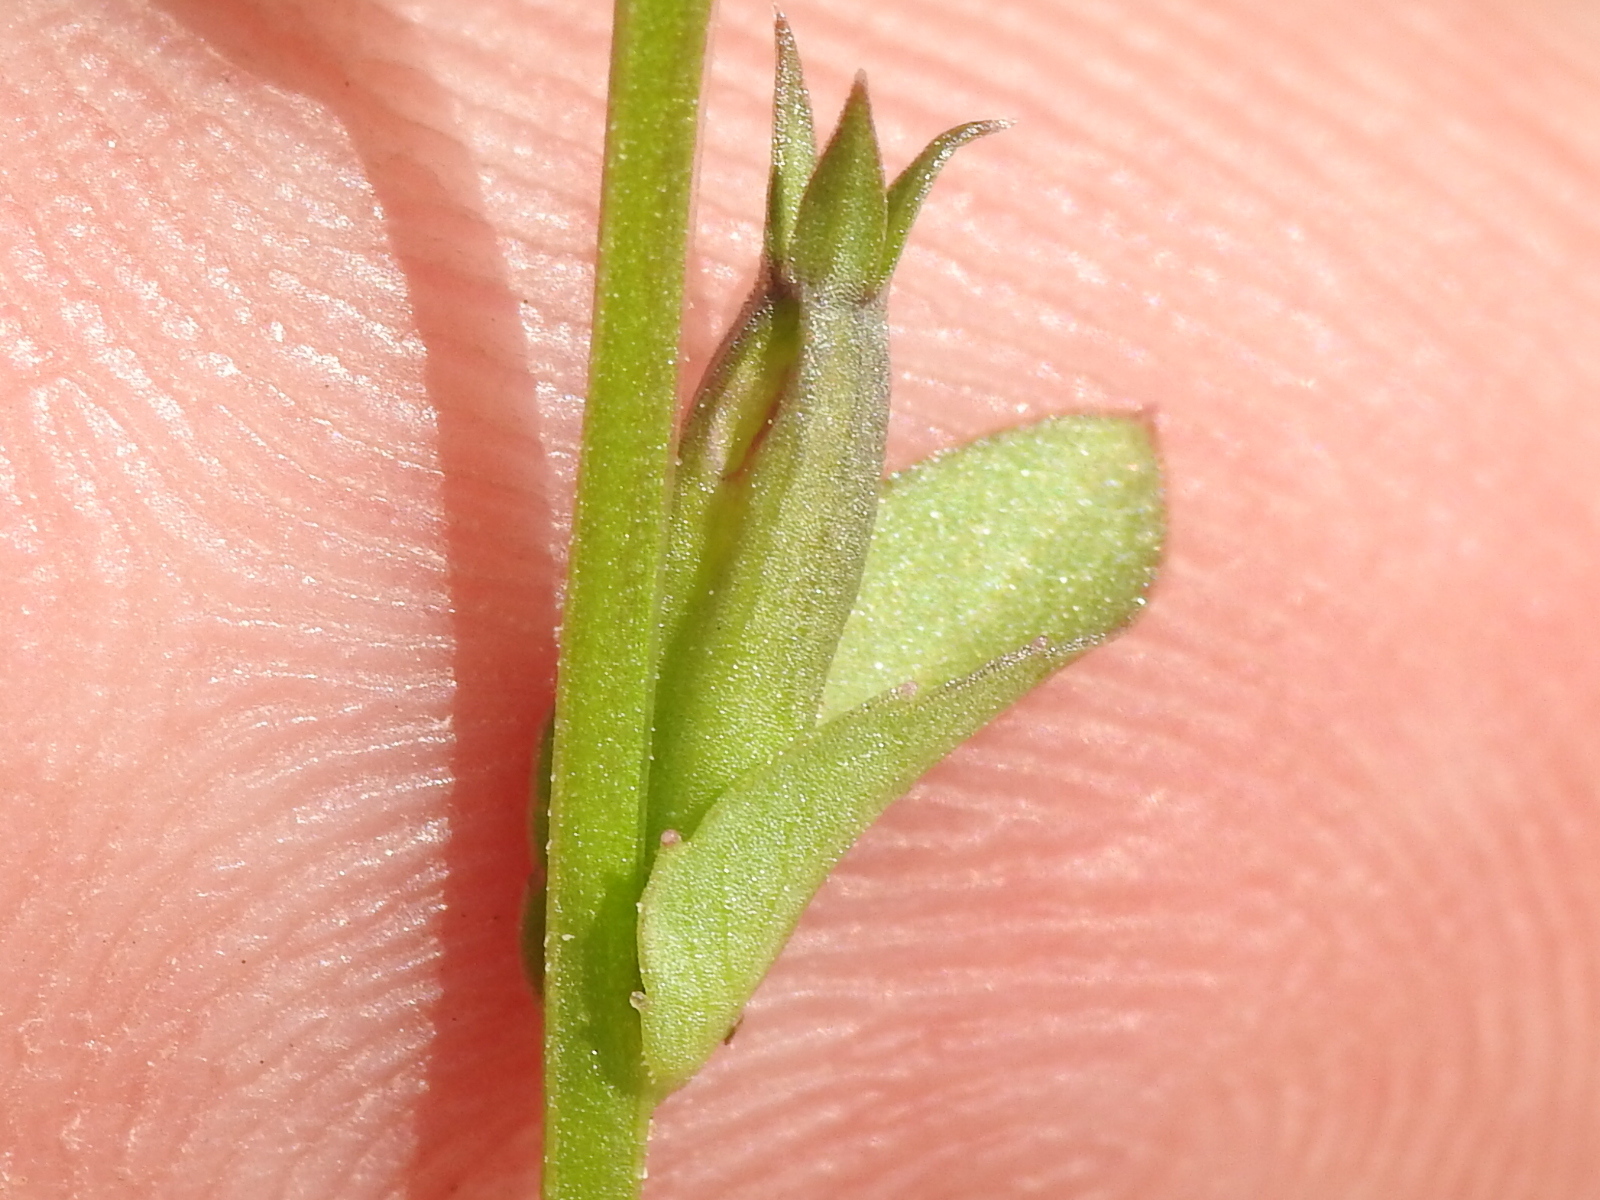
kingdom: Plantae
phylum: Tracheophyta
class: Magnoliopsida
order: Asterales
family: Campanulaceae
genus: Triodanis
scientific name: Triodanis biflora
